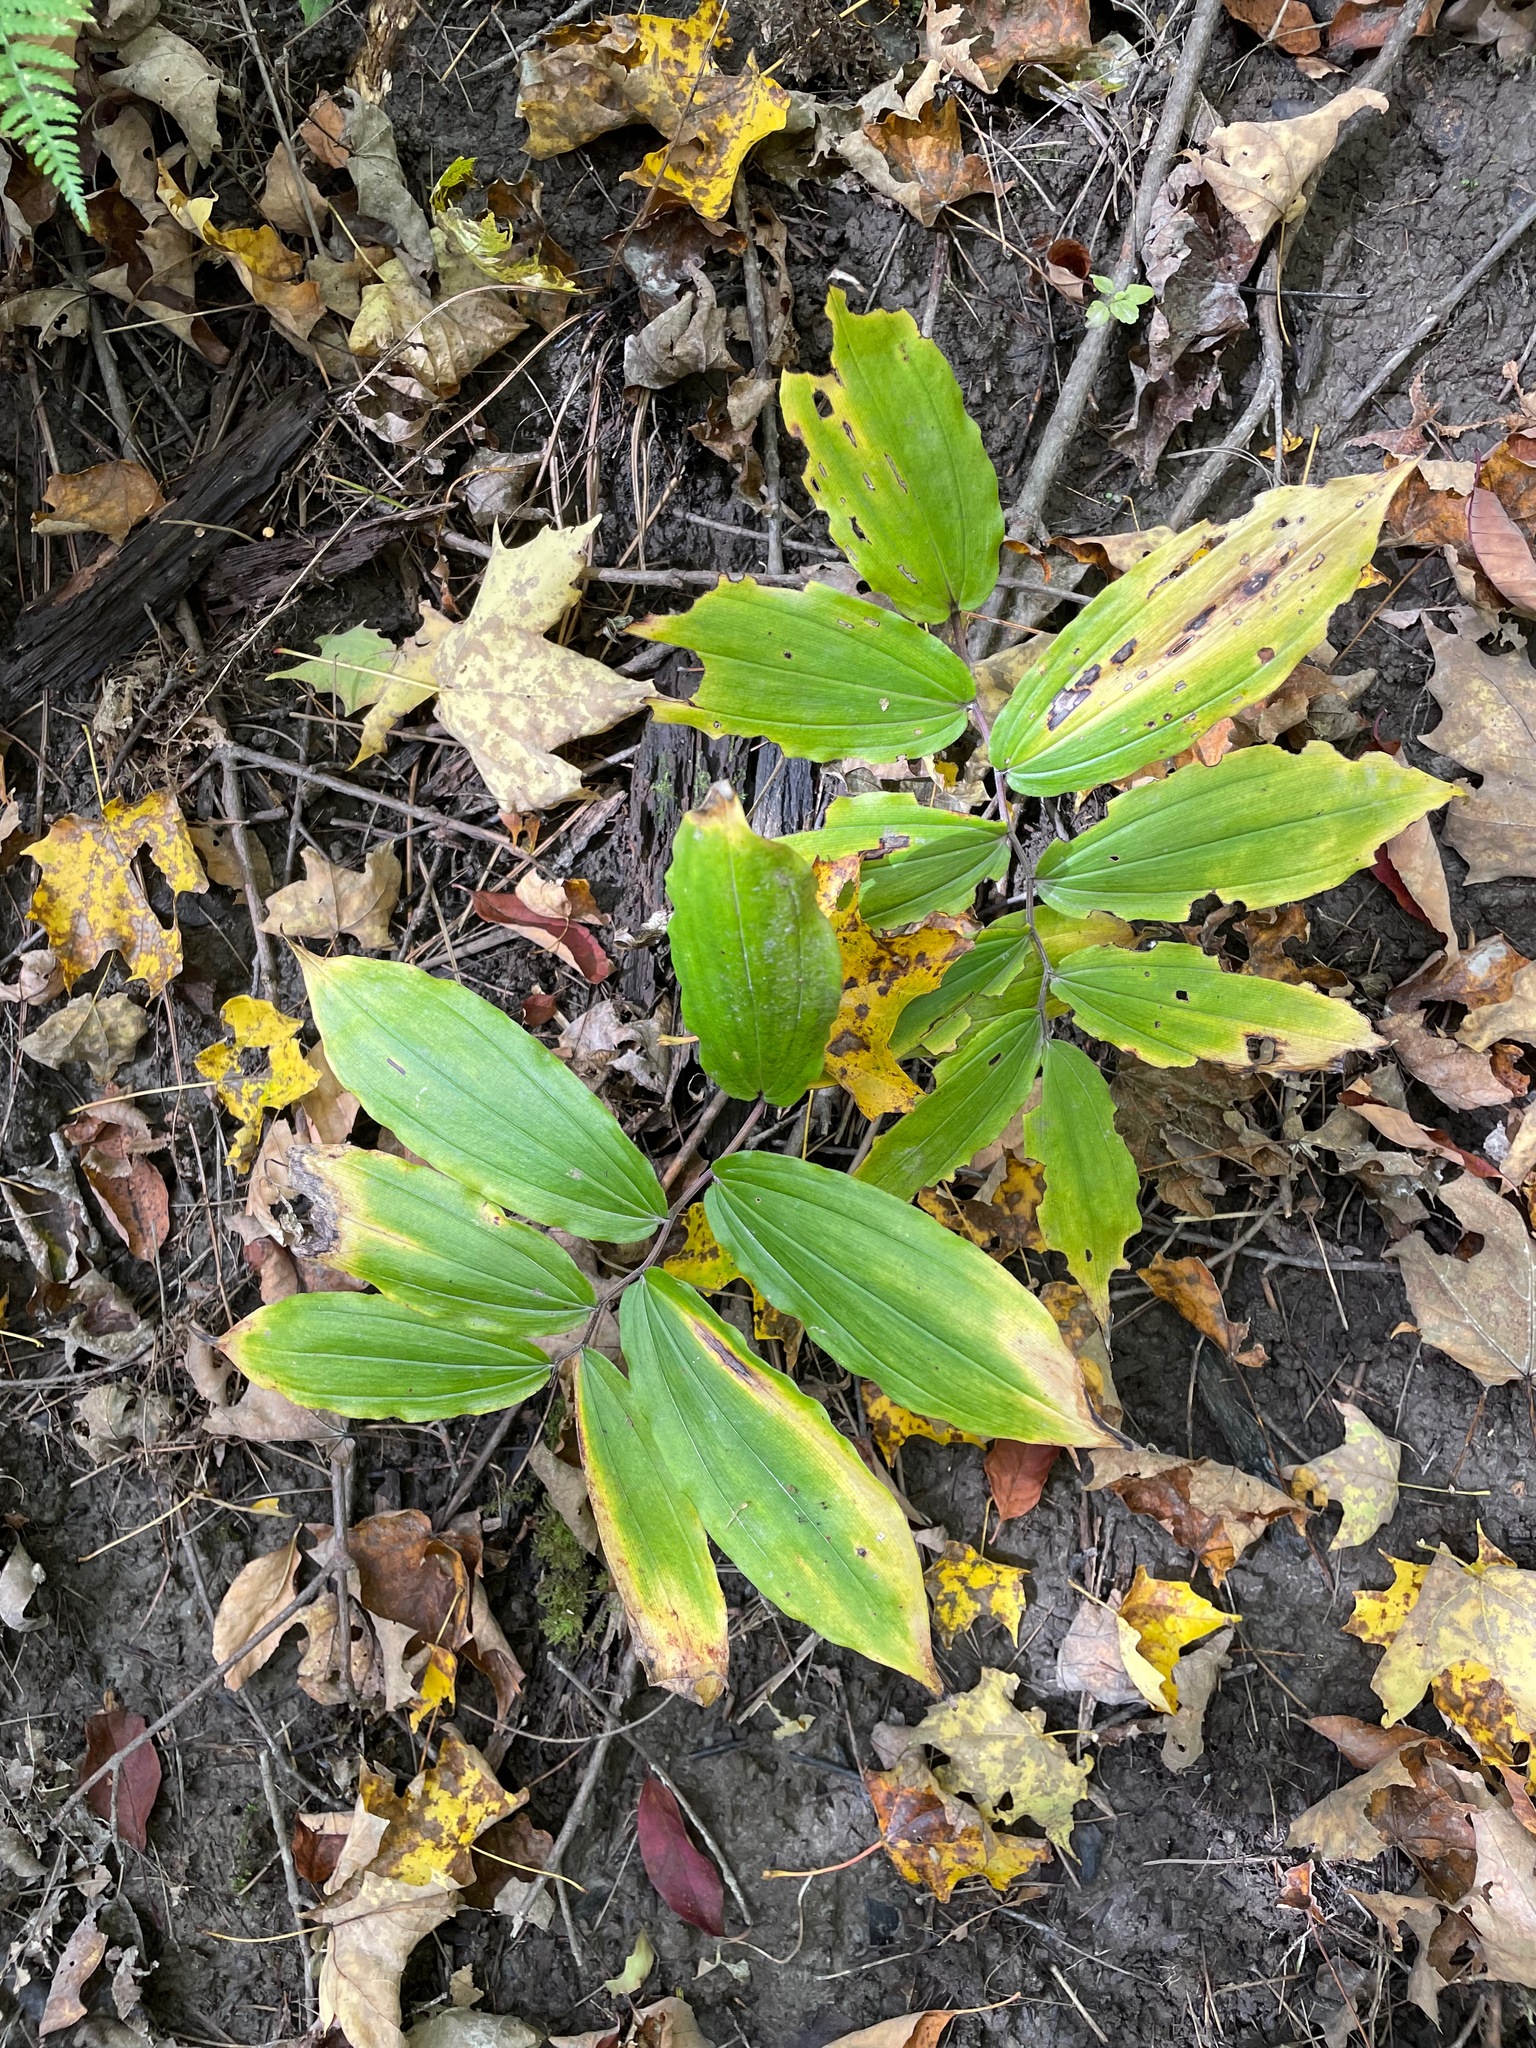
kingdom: Plantae
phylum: Tracheophyta
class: Liliopsida
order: Asparagales
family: Asparagaceae
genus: Maianthemum
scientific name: Maianthemum racemosum
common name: False spikenard
